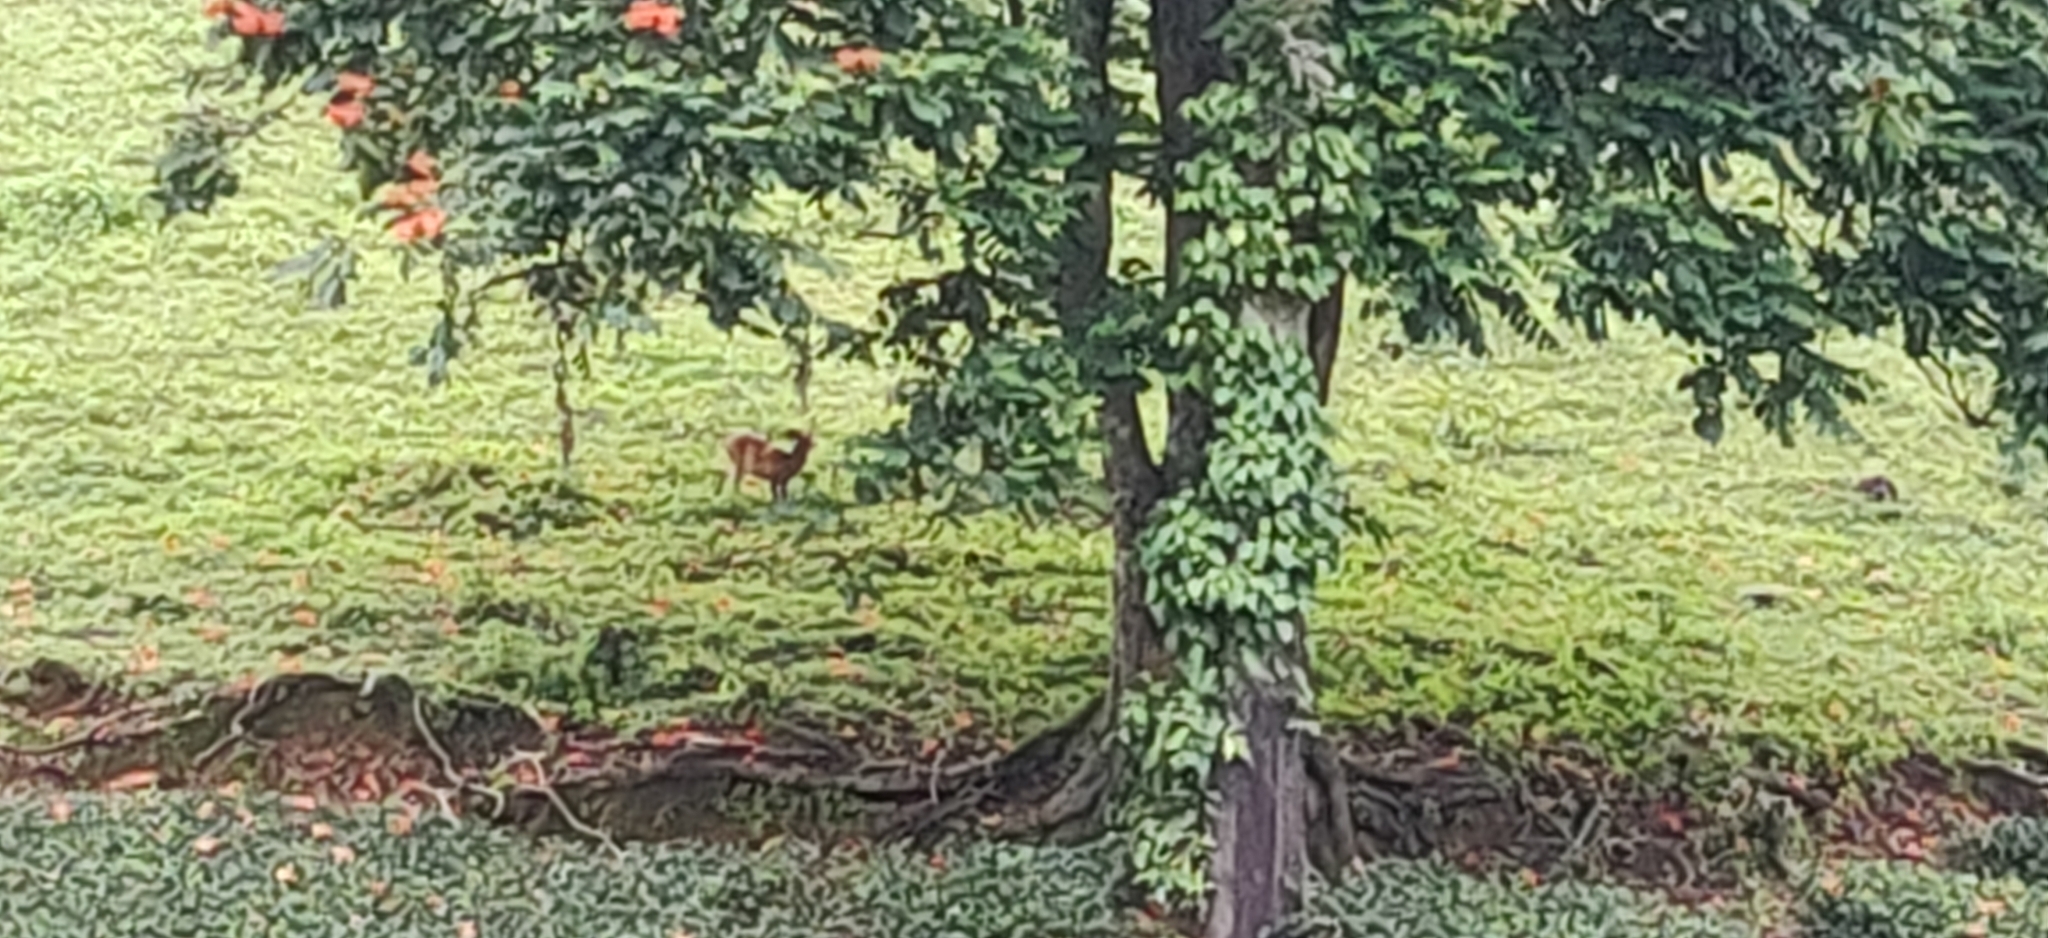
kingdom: Animalia
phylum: Chordata
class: Mammalia
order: Artiodactyla
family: Cervidae
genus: Muntiacus
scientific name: Muntiacus muntjak
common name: Indian muntjac
